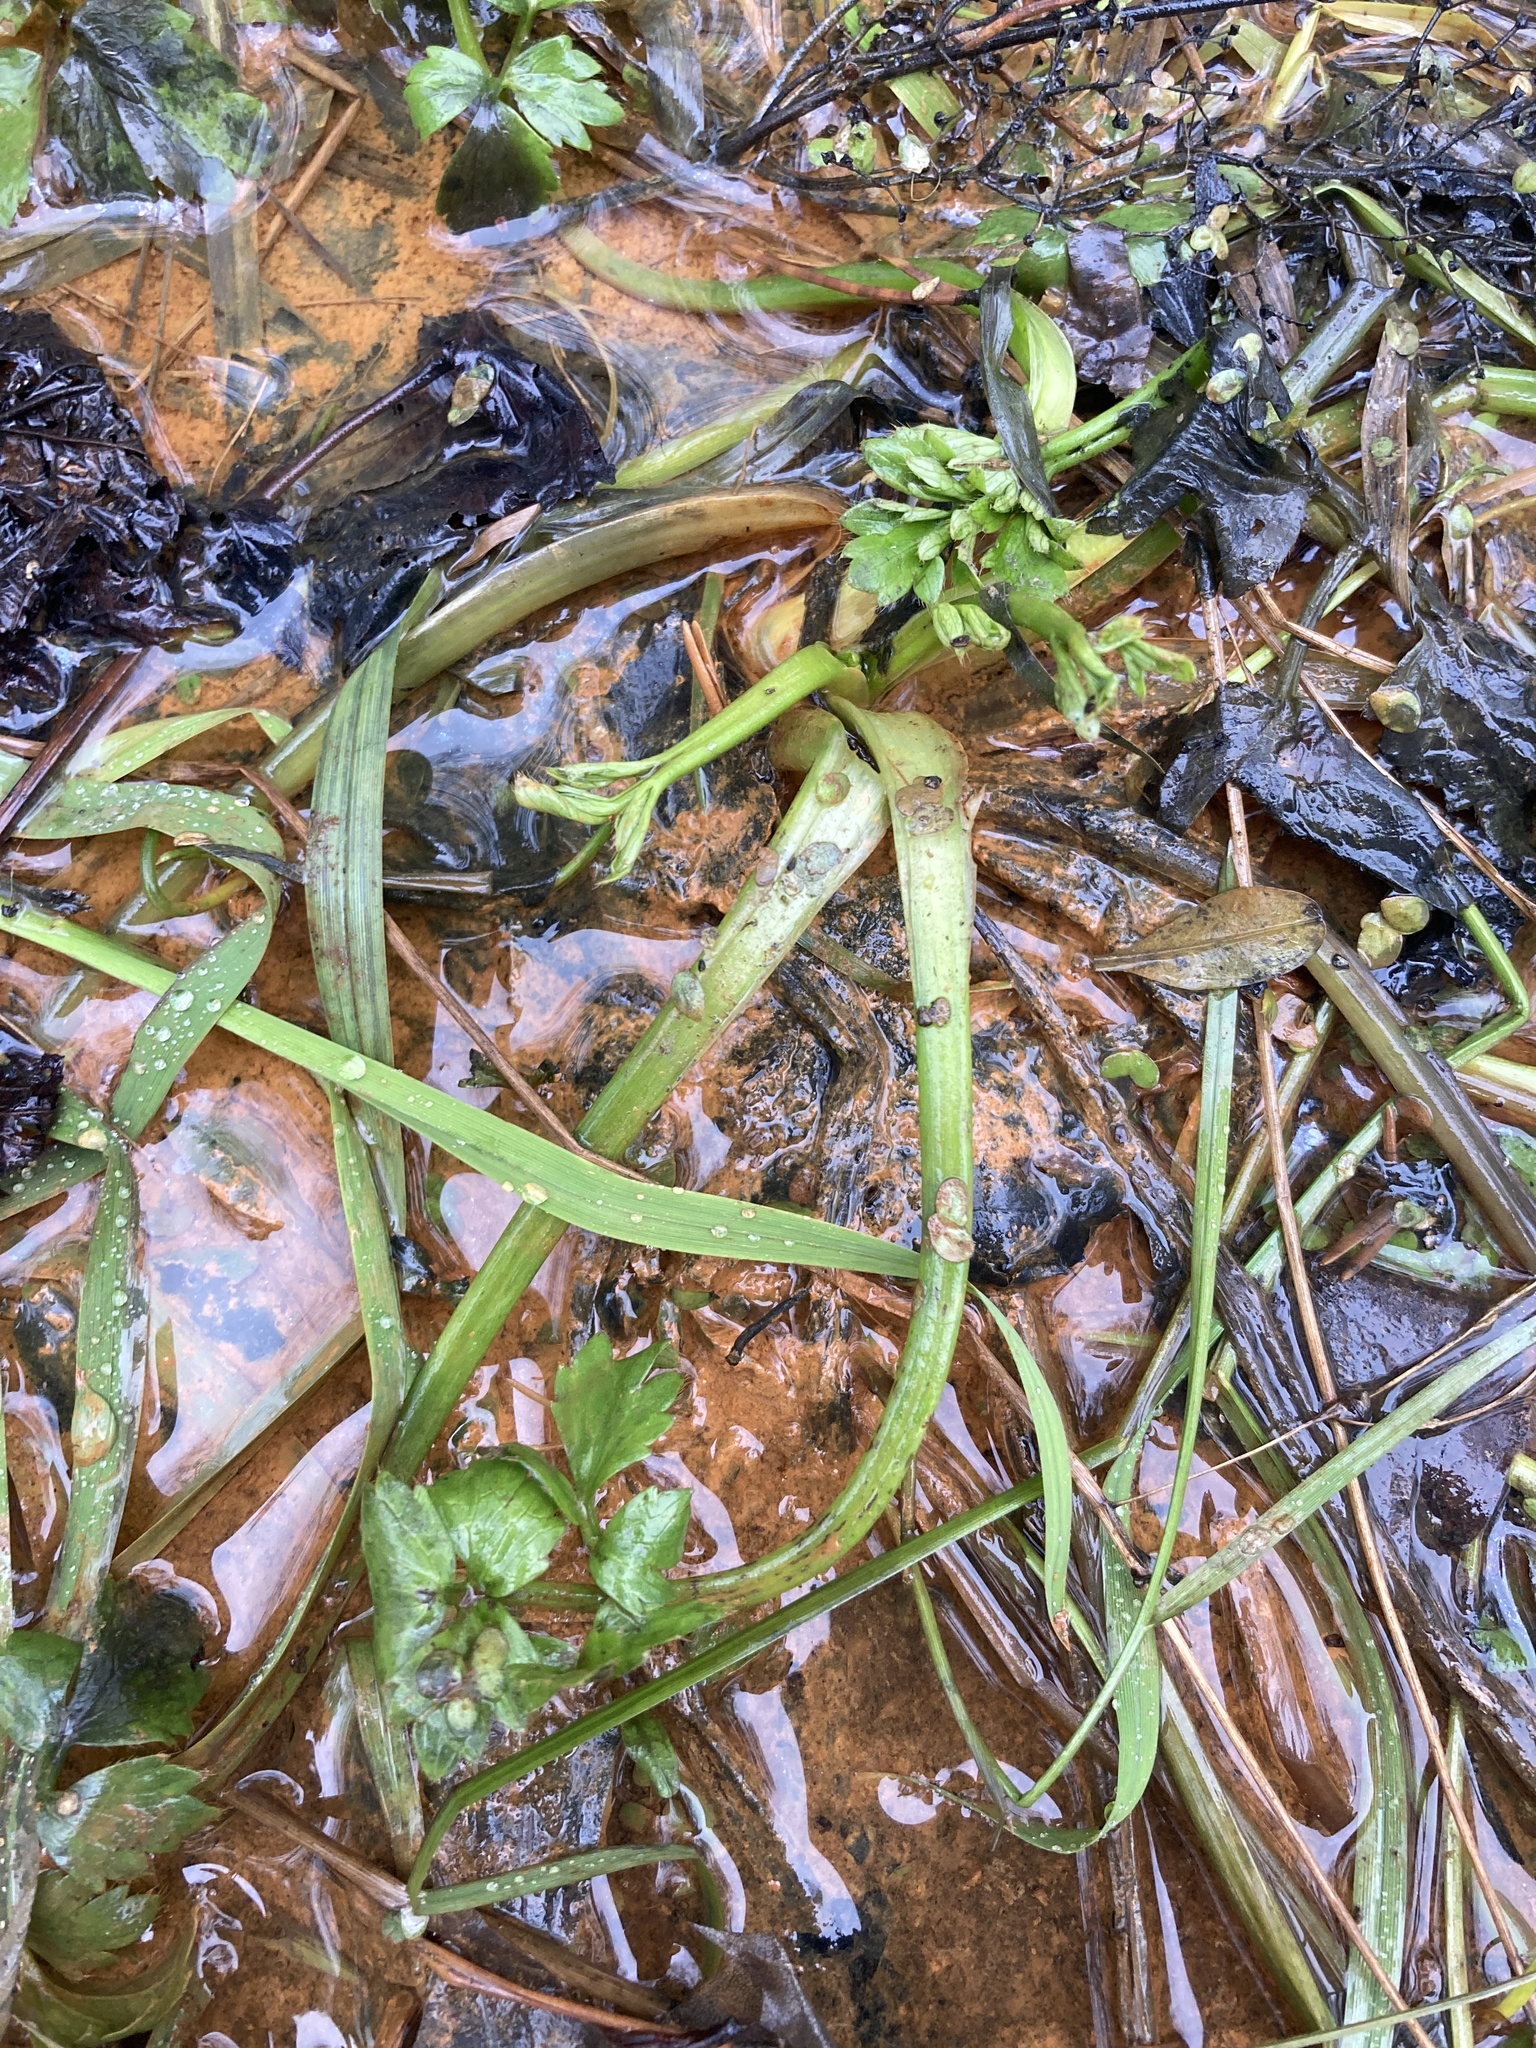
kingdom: Plantae
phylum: Tracheophyta
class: Magnoliopsida
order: Ranunculales
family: Ranunculaceae
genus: Ranunculus
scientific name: Ranunculus repens
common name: Creeping buttercup
